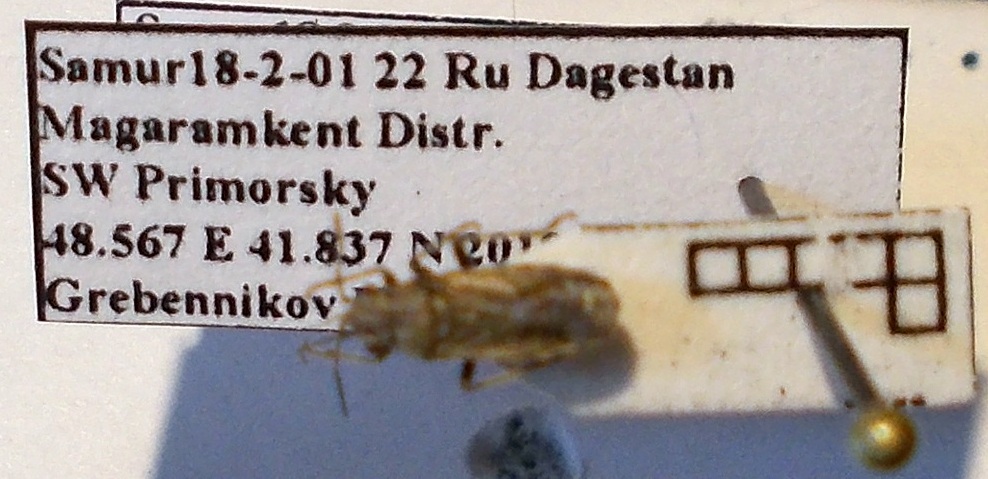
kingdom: Animalia
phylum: Arthropoda
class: Insecta
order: Hemiptera
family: Lygaeidae
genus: Ortholomus
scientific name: Ortholomus punctipennis
